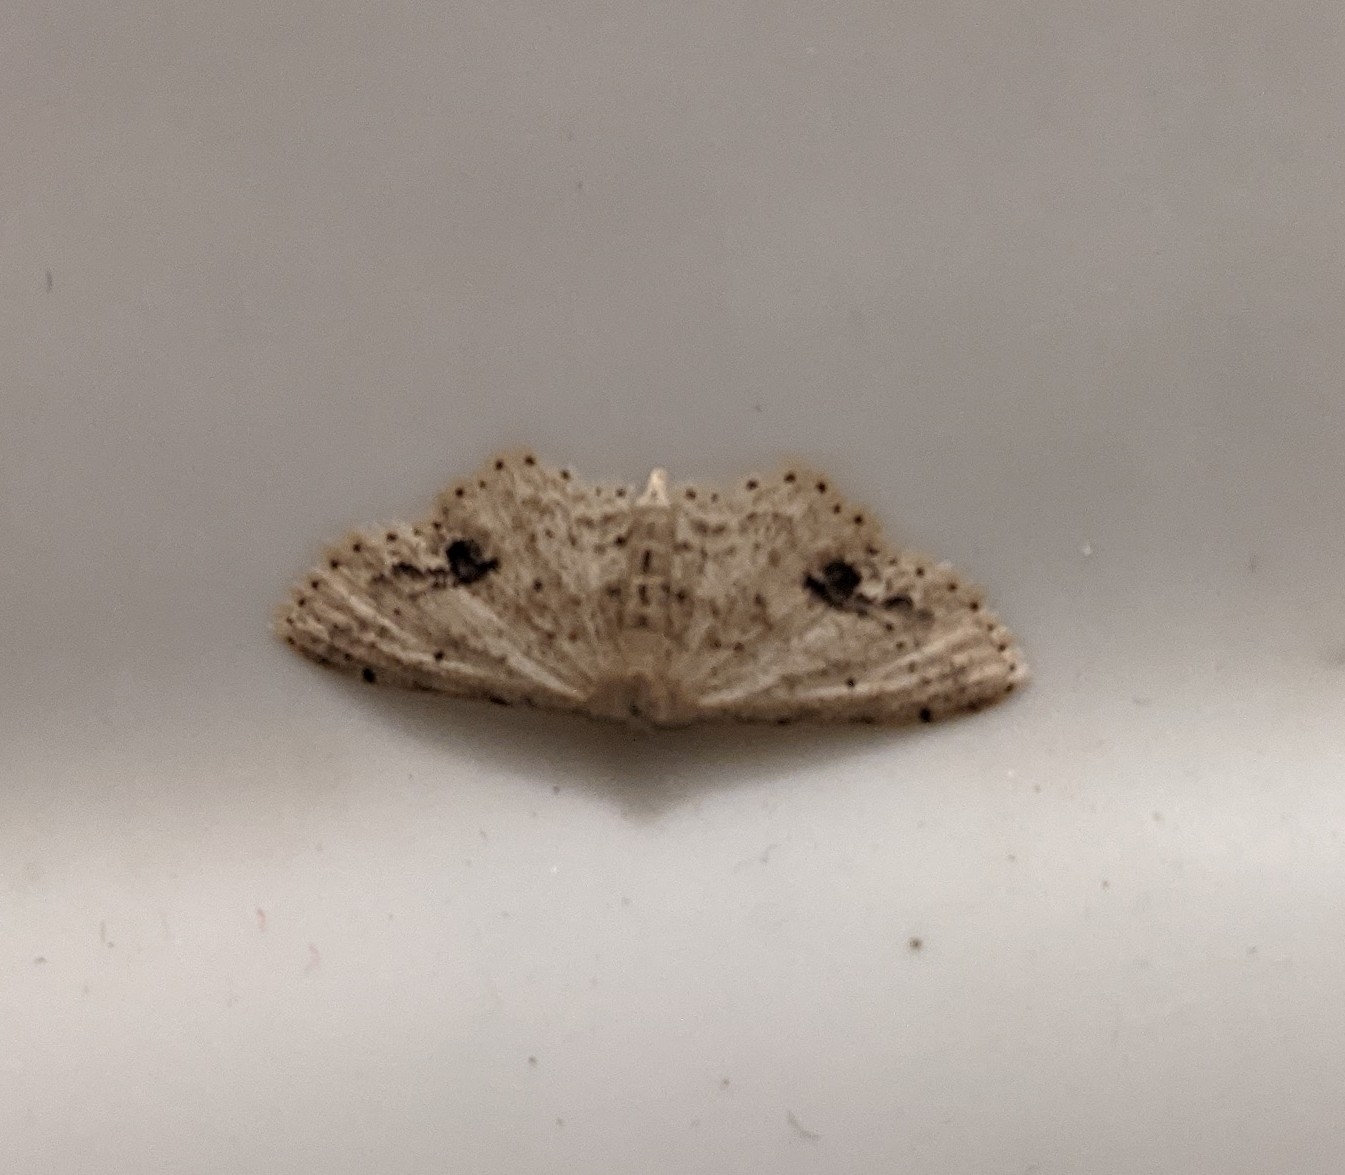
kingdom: Animalia
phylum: Arthropoda
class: Insecta
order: Lepidoptera
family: Geometridae
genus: Idaea
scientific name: Idaea dimidiata
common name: Single-dotted wave
